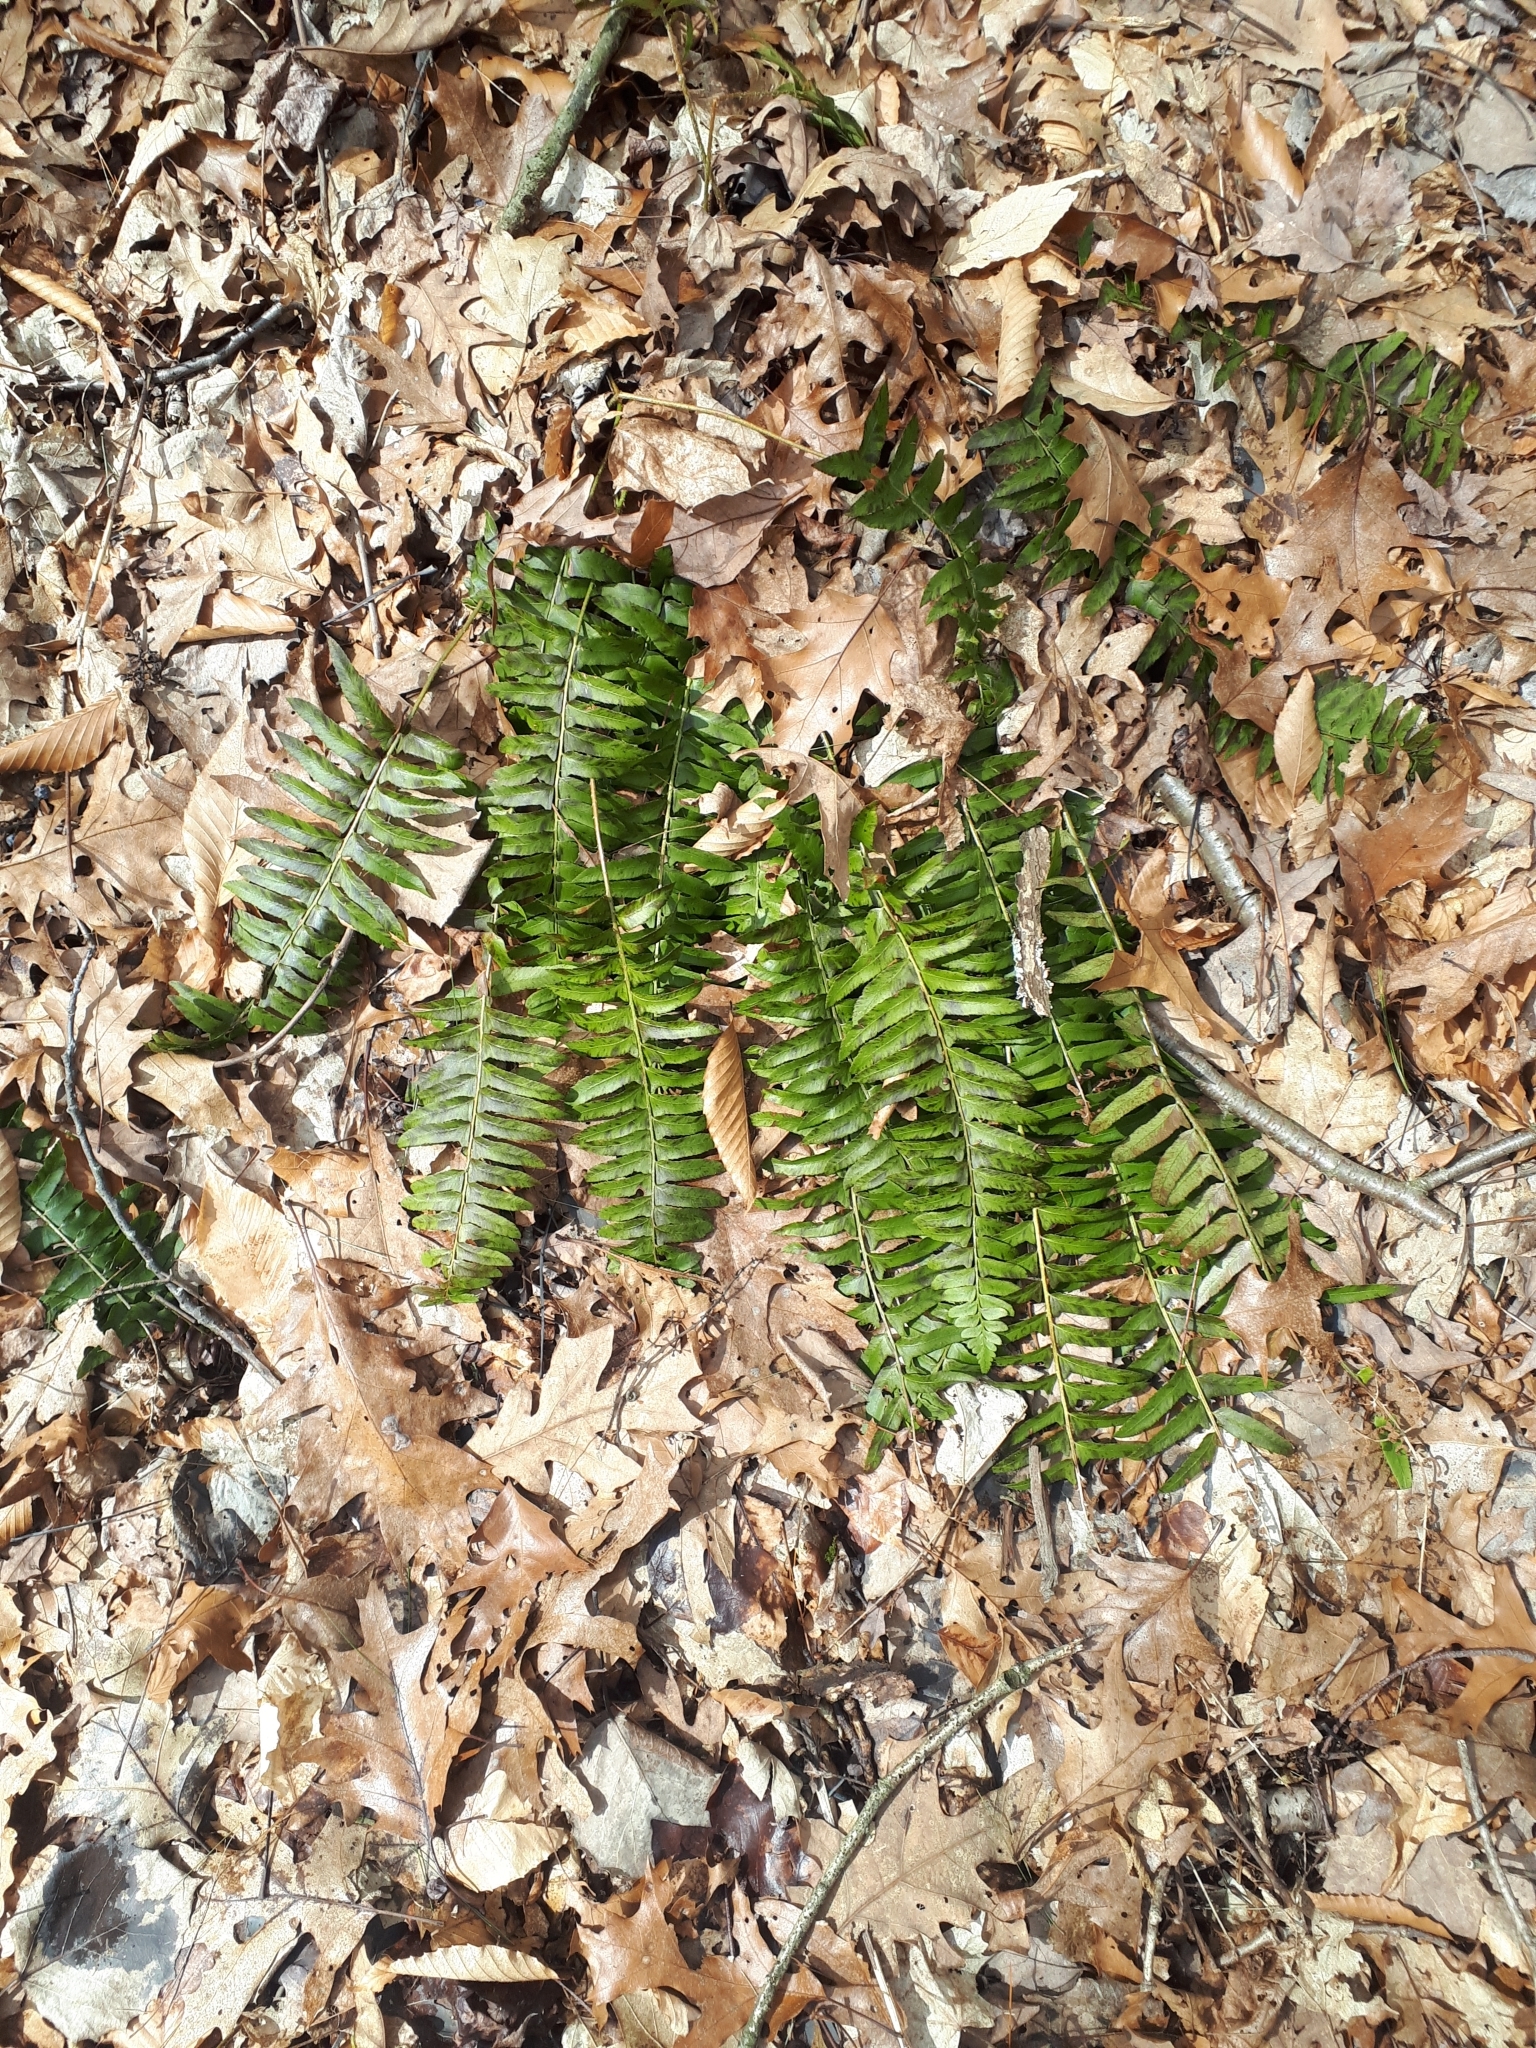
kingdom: Plantae
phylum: Tracheophyta
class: Polypodiopsida
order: Polypodiales
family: Dryopteridaceae
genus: Polystichum
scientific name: Polystichum acrostichoides
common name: Christmas fern
